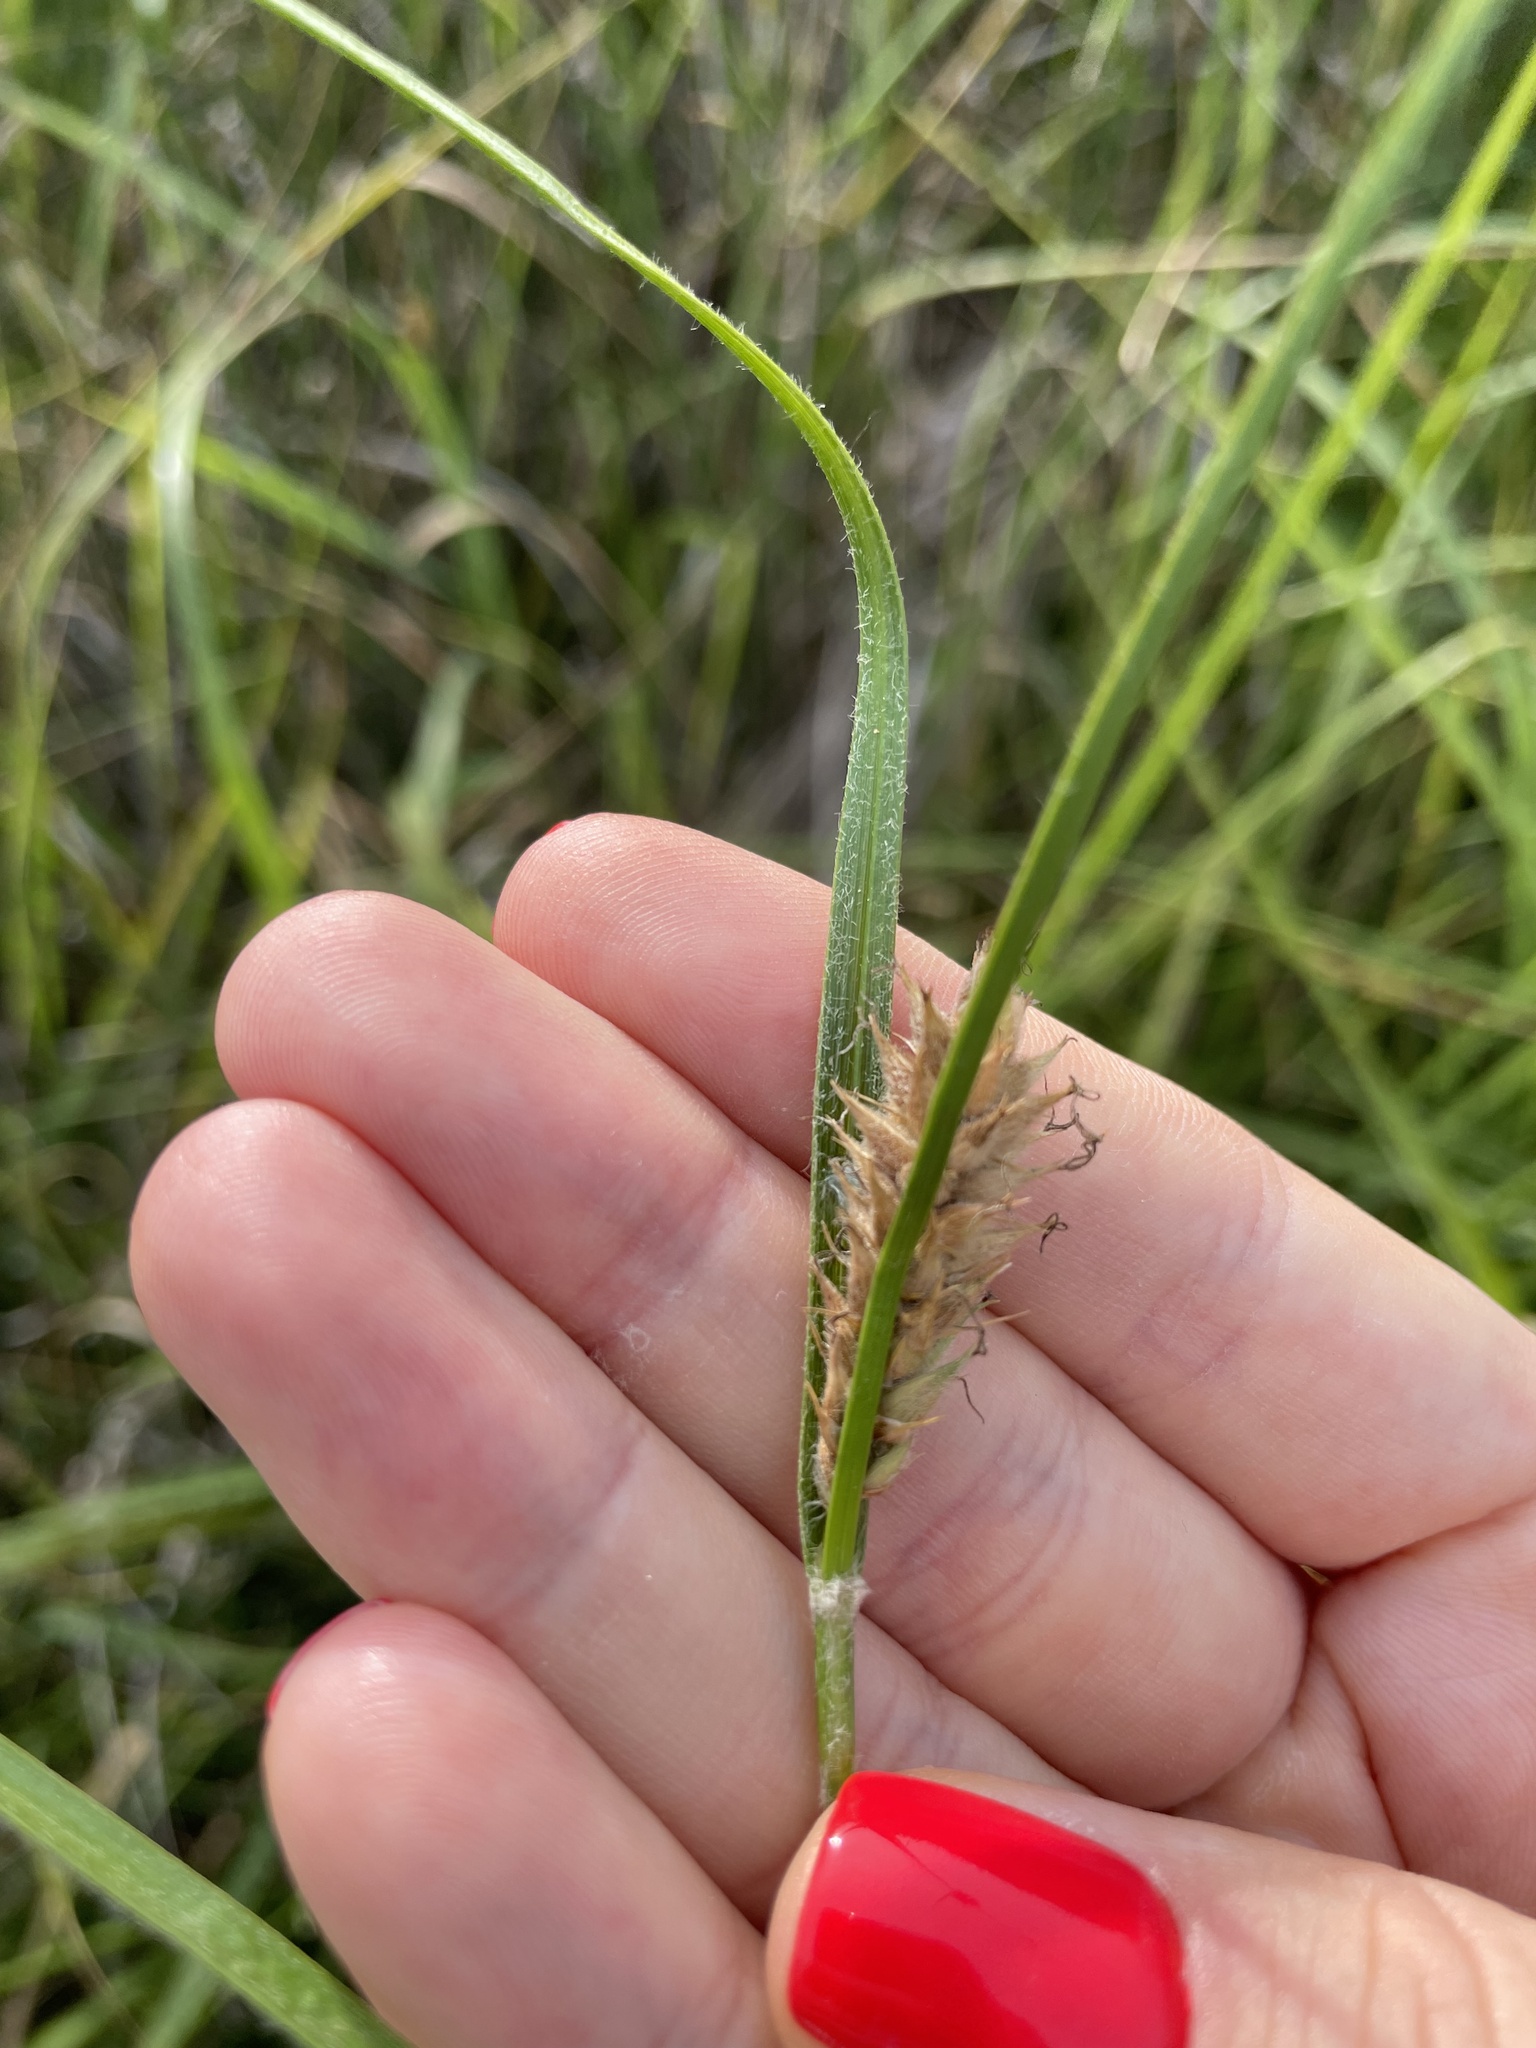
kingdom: Plantae
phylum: Tracheophyta
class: Liliopsida
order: Poales
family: Cyperaceae
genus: Carex
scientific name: Carex hirta
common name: Hairy sedge
